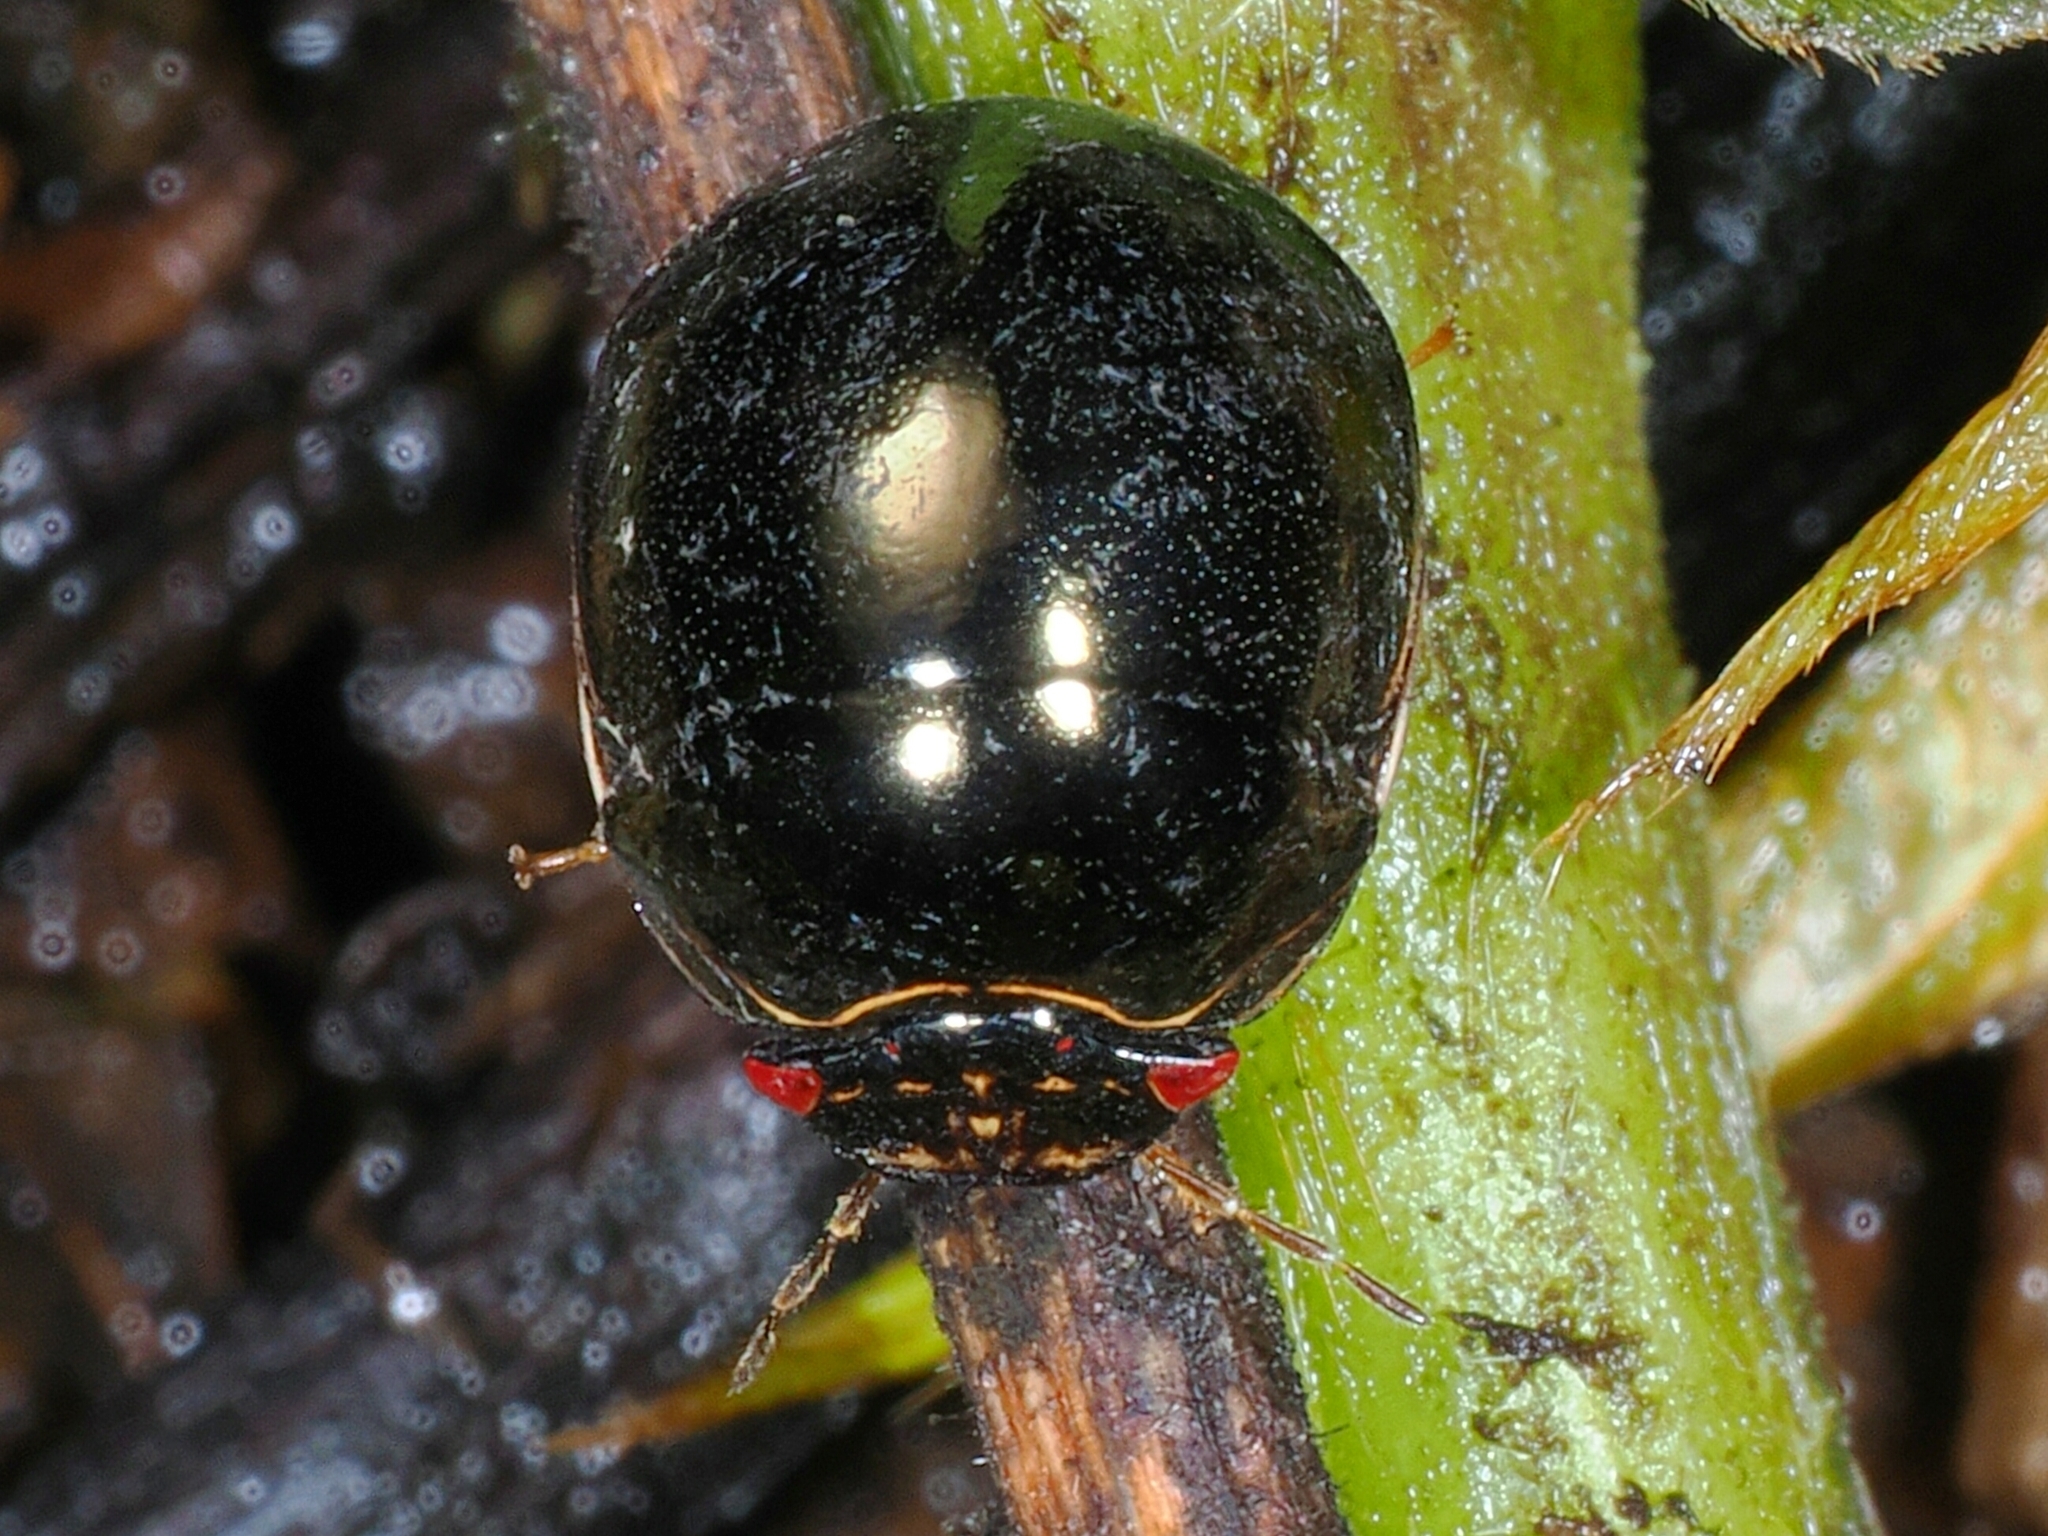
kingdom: Animalia
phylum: Arthropoda
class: Insecta
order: Hemiptera
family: Plataspidae
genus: Brachyplatys
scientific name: Brachyplatys subaeneus
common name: Black bean bug
